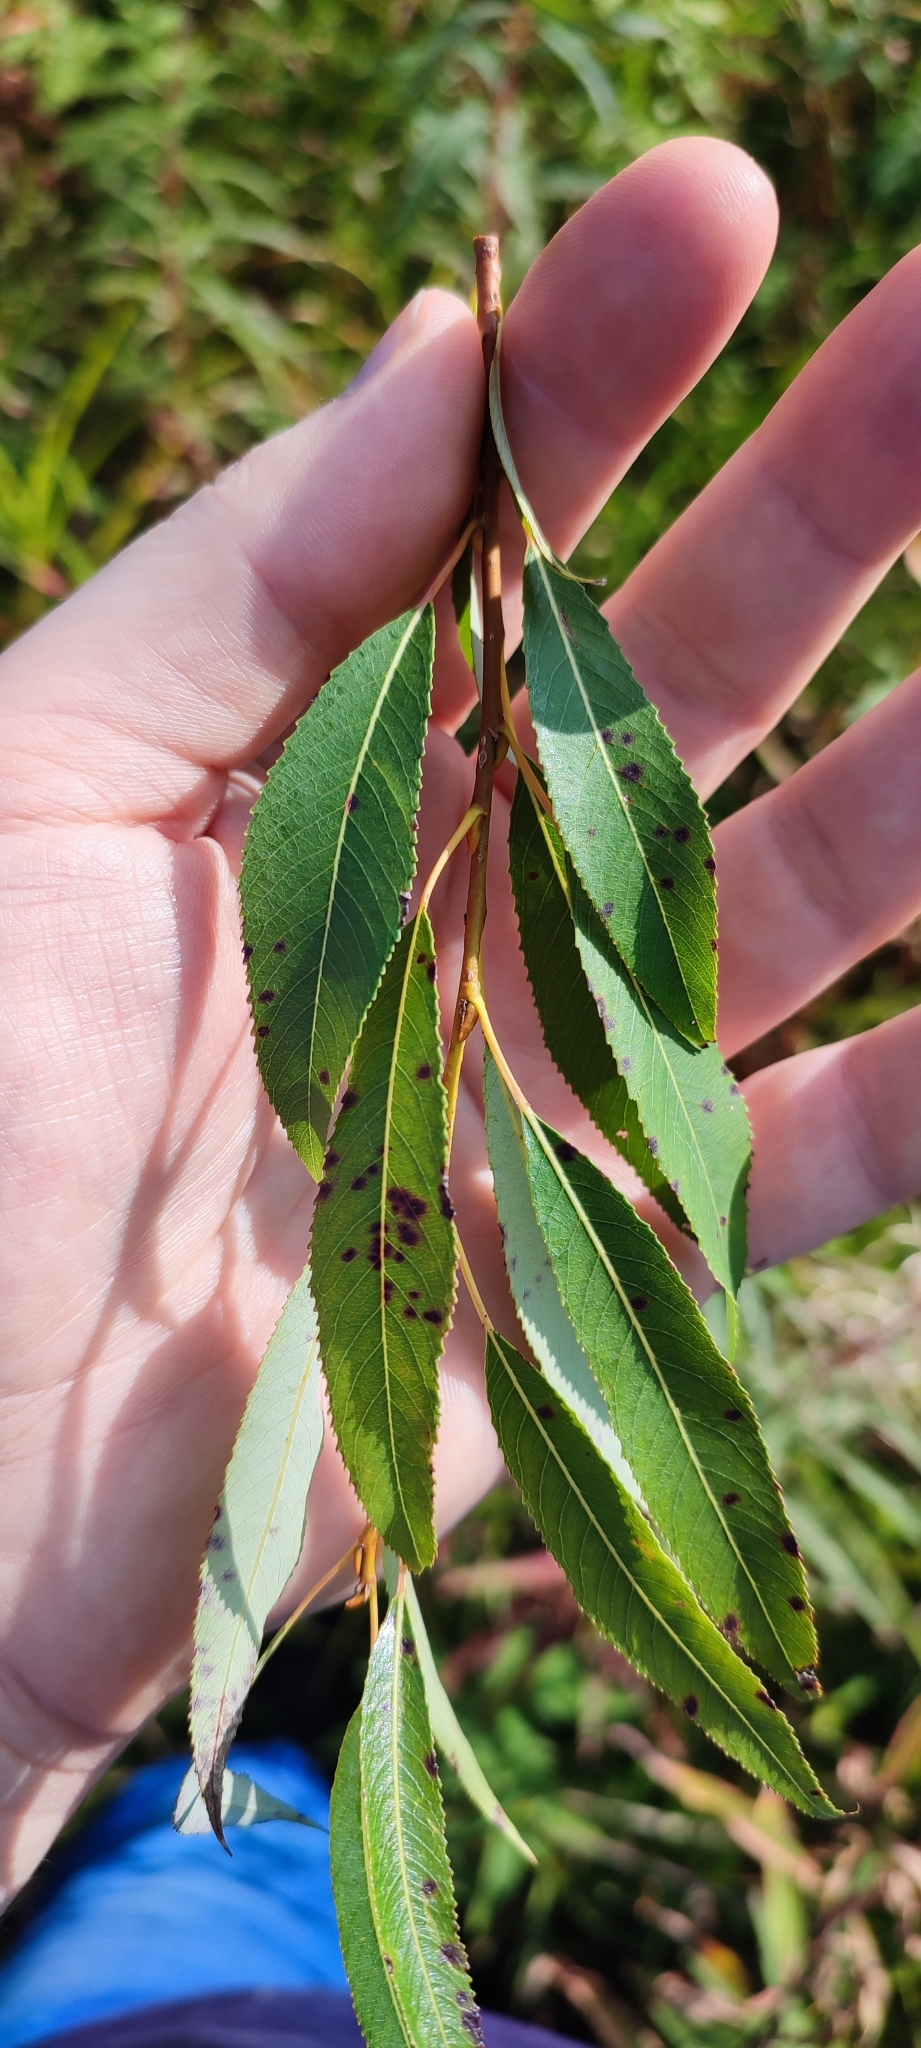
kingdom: Plantae
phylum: Tracheophyta
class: Magnoliopsida
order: Malpighiales
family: Salicaceae
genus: Salix
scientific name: Salix triandra
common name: Almond willow
